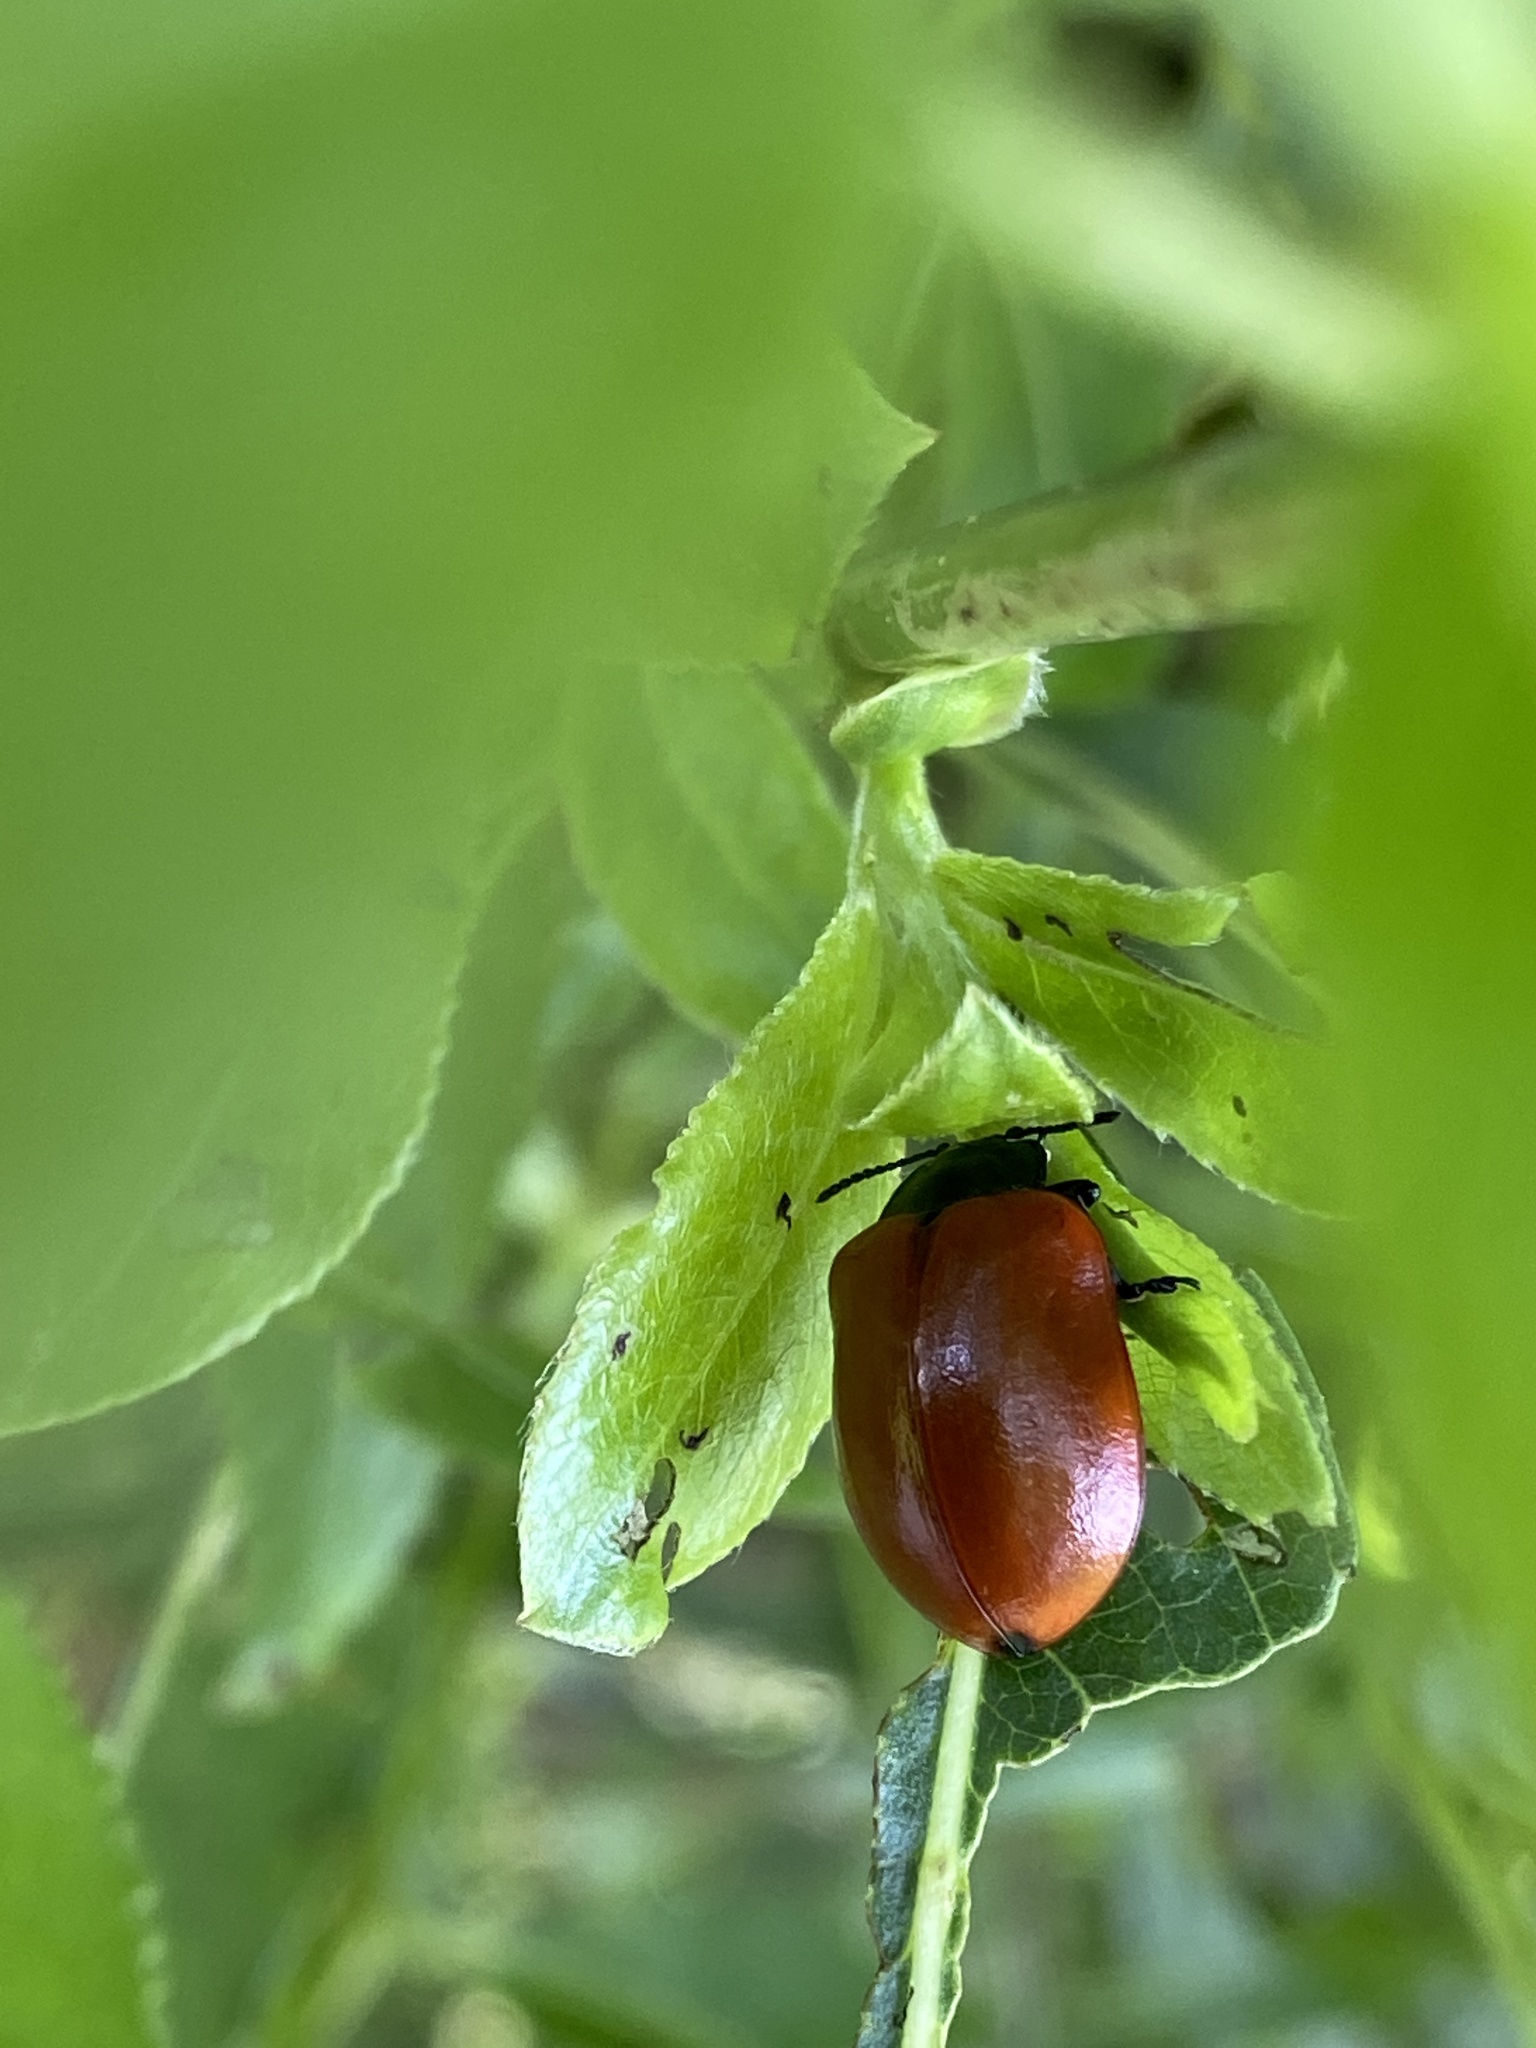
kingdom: Animalia
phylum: Arthropoda
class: Insecta
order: Coleoptera
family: Chrysomelidae
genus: Chrysomela
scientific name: Chrysomela populi
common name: Red poplar leaf beetle
